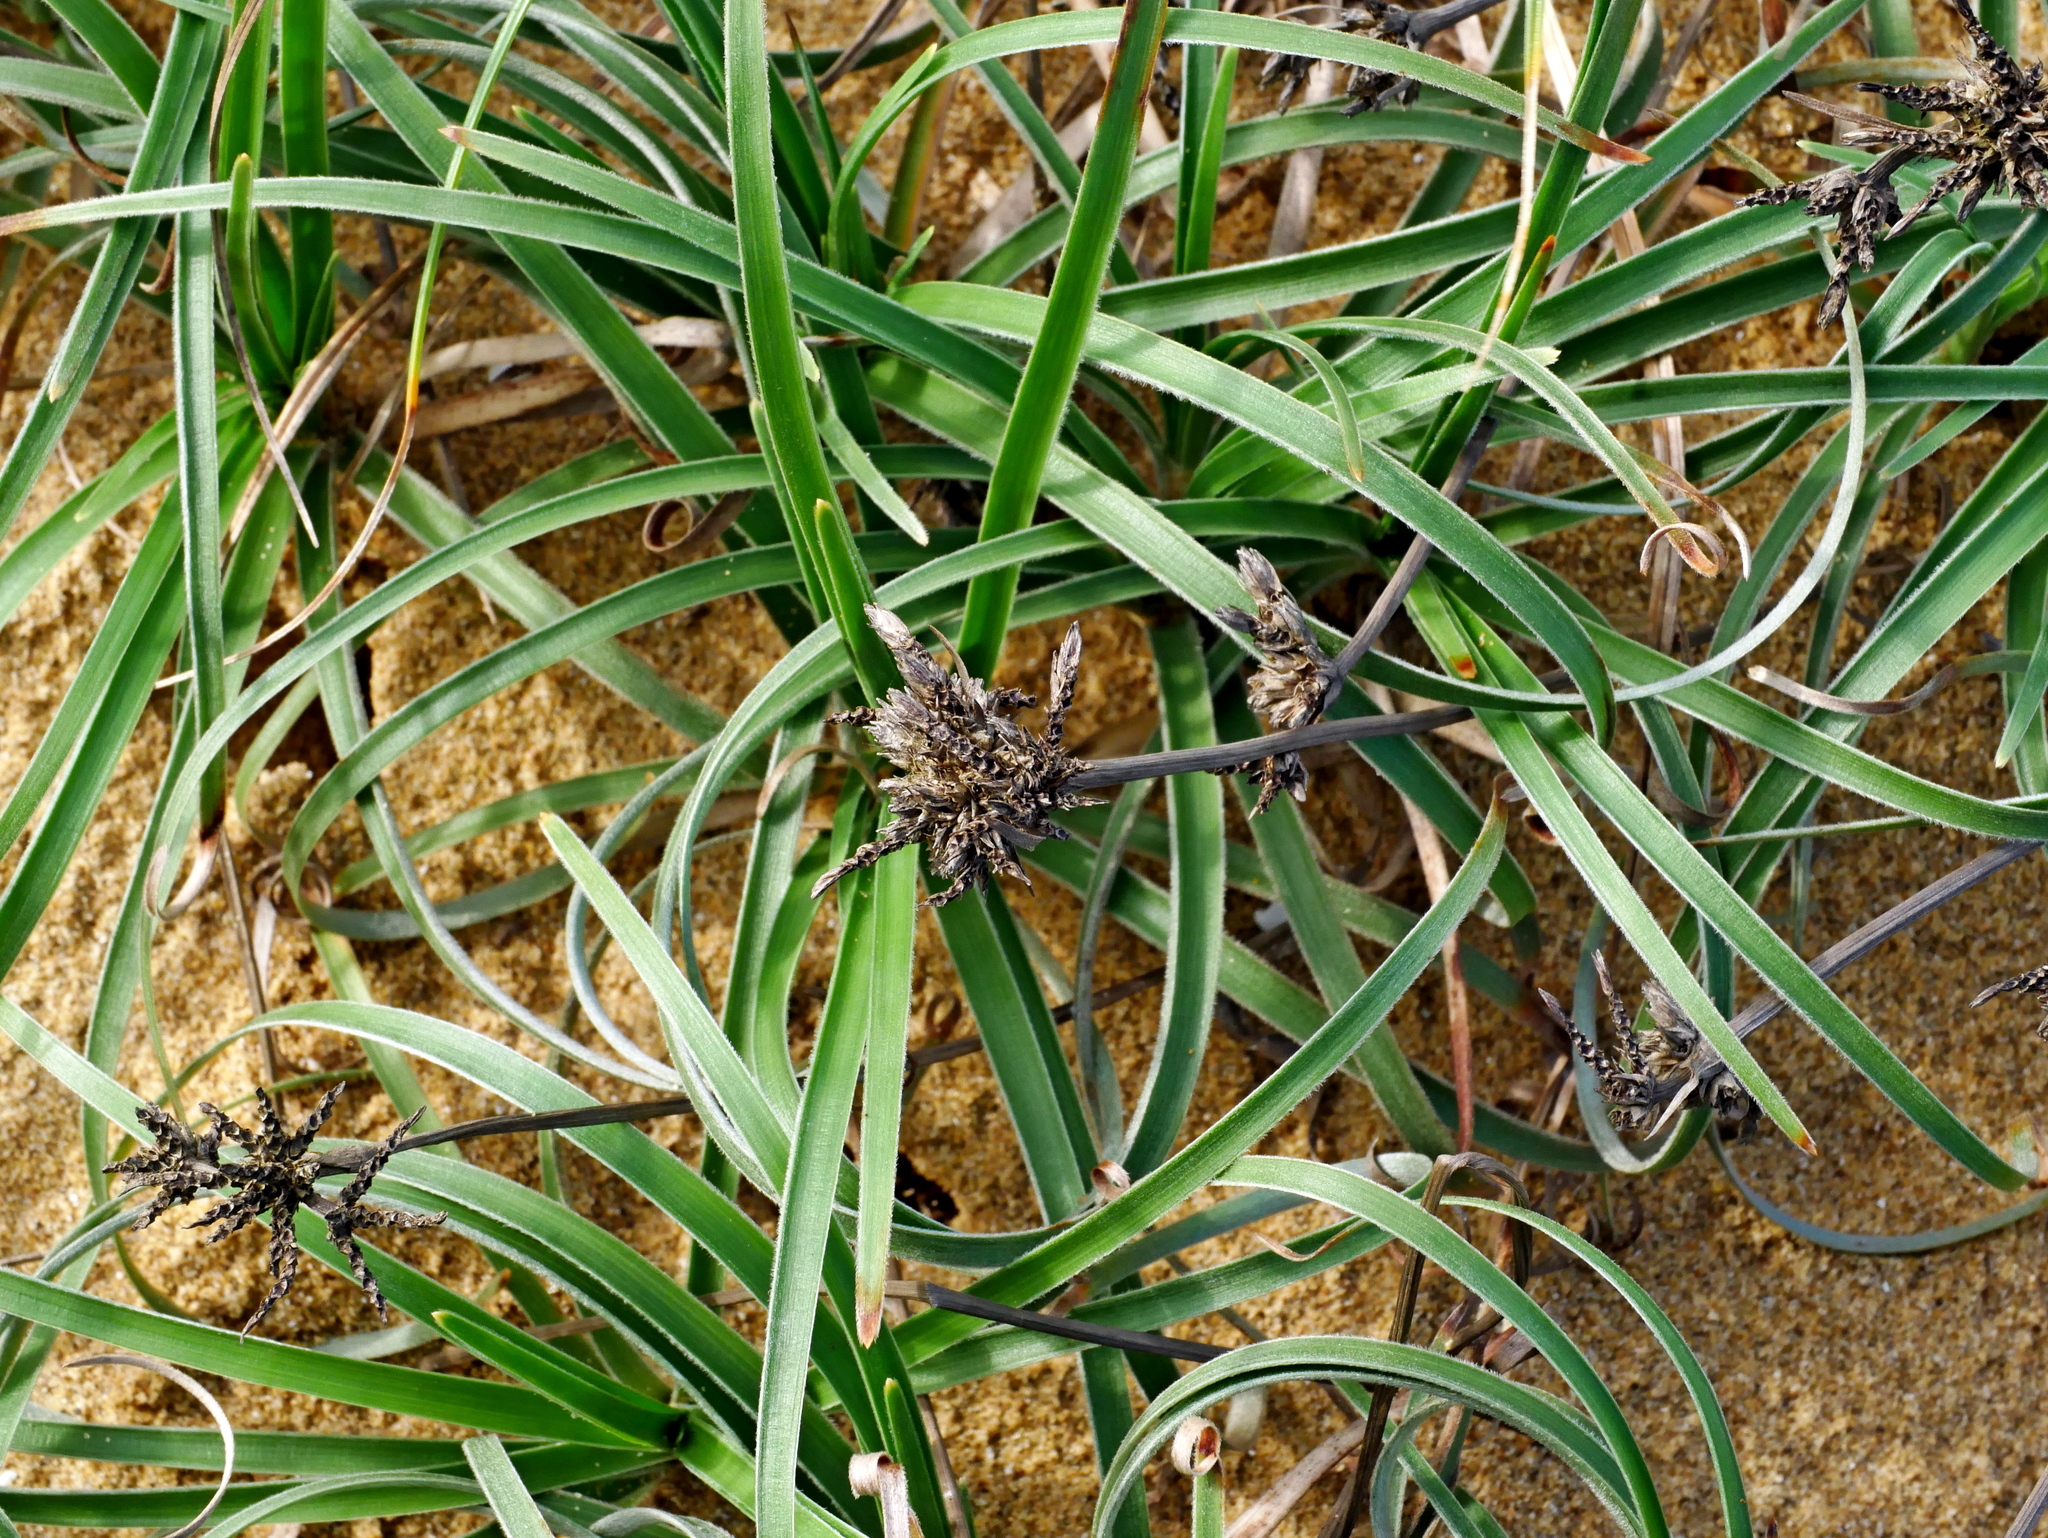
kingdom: Plantae
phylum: Tracheophyta
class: Liliopsida
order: Poales
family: Cyperaceae
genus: Fimbristylis
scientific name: Fimbristylis sericea
